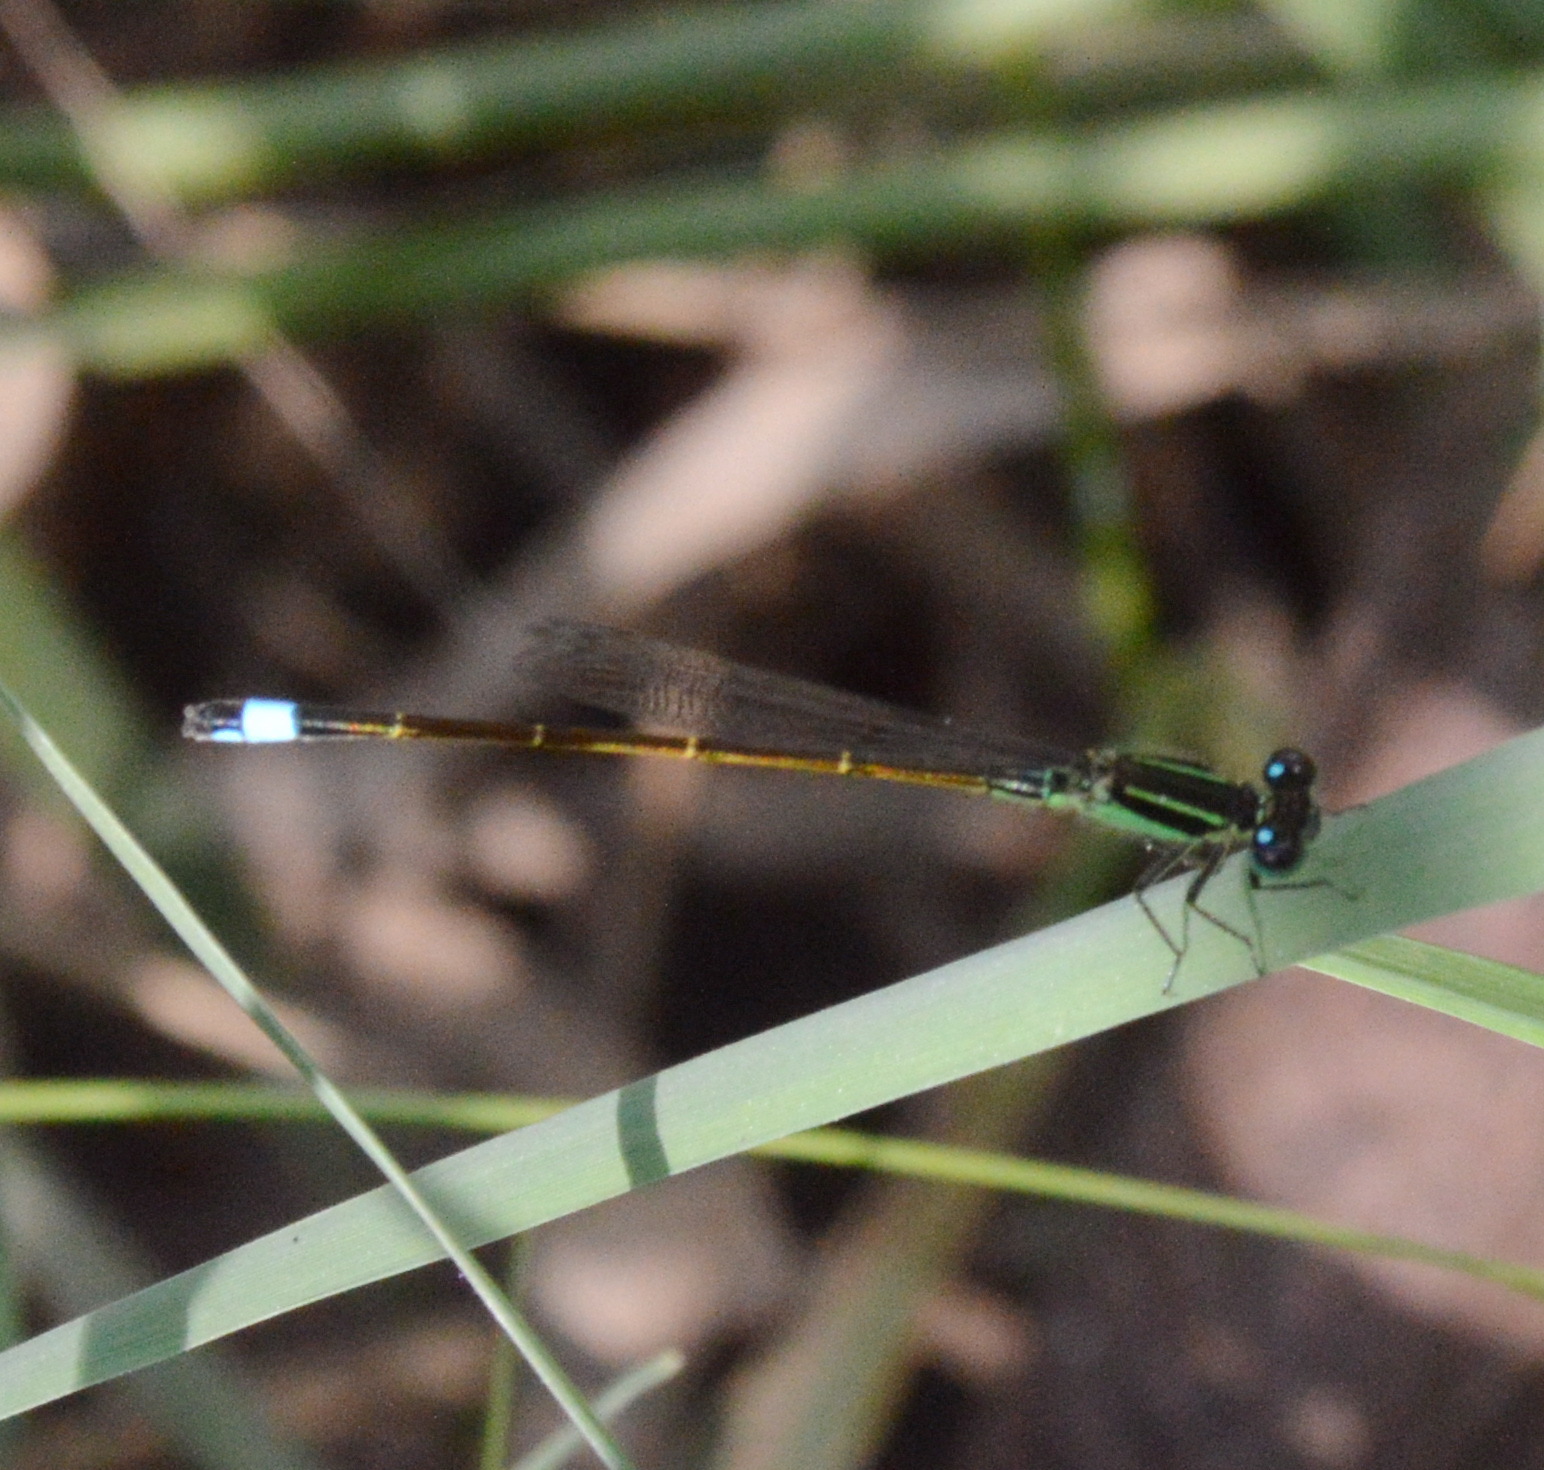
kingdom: Animalia
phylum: Arthropoda
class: Insecta
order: Odonata
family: Coenagrionidae
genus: Ischnura
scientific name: Ischnura ramburii
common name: Rambur's forktail
